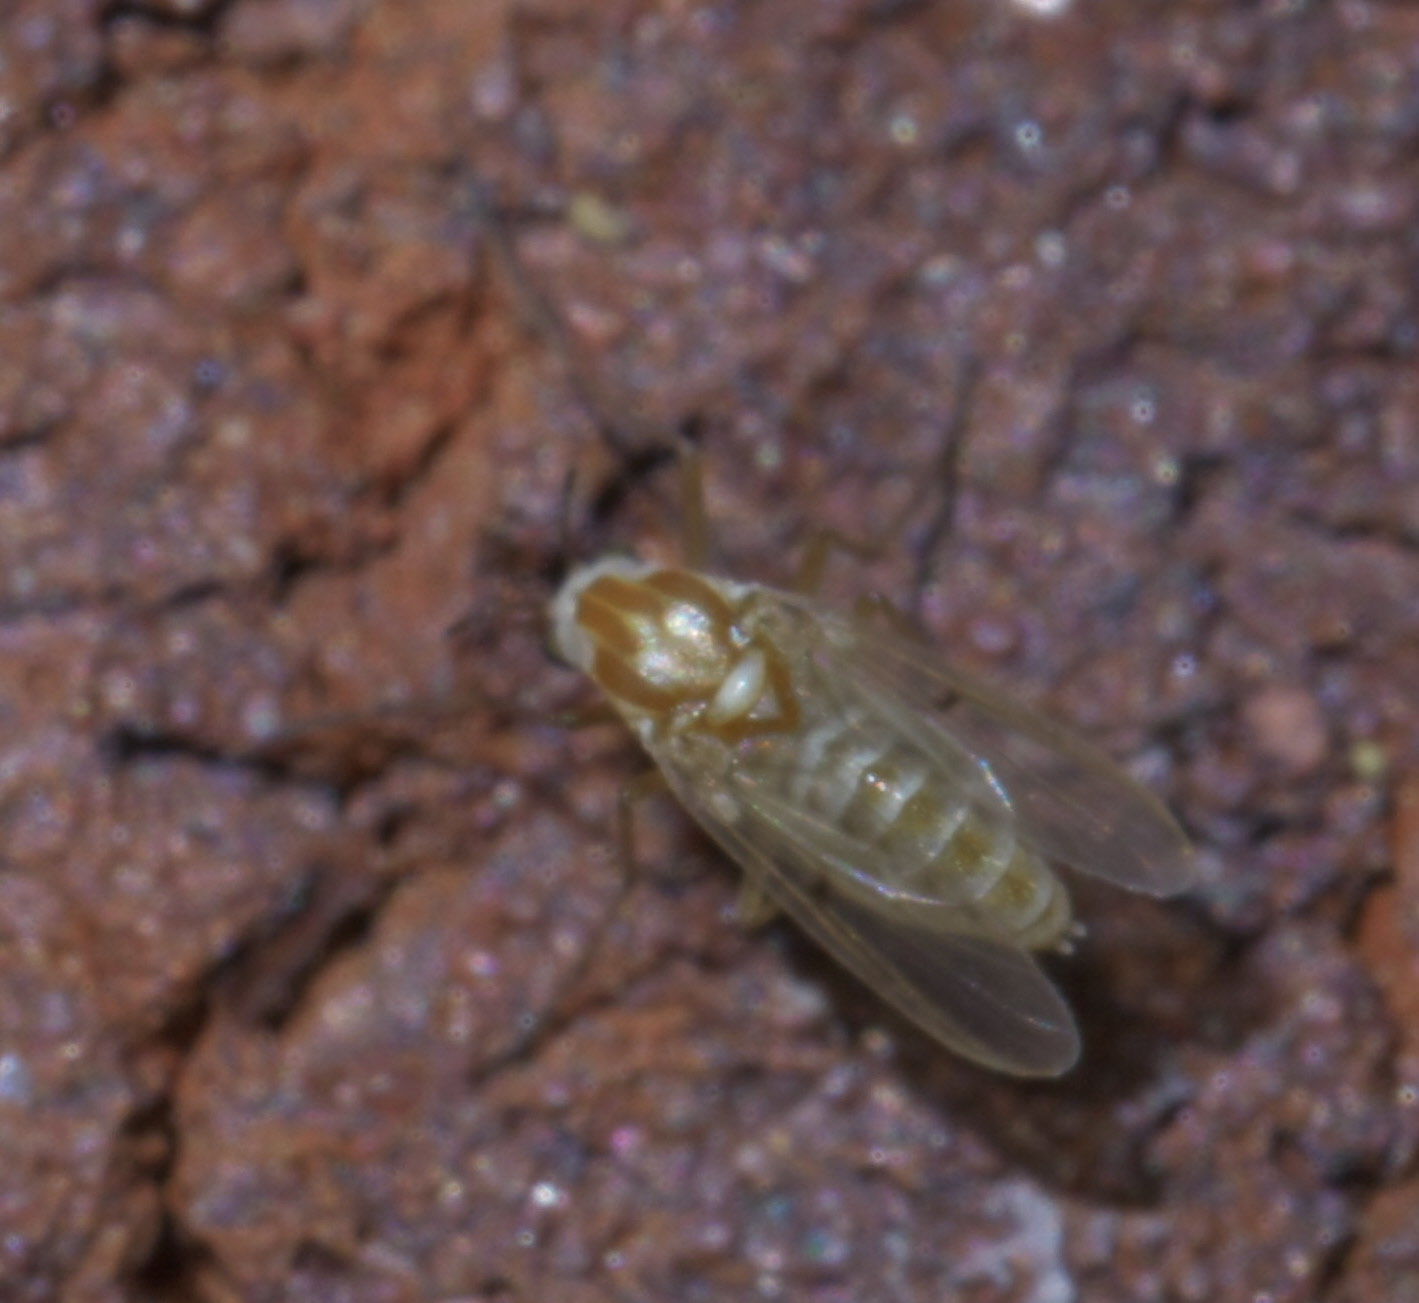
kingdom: Animalia
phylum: Arthropoda
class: Insecta
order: Diptera
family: Chironomidae
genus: Procladius
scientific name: Procladius bellus
